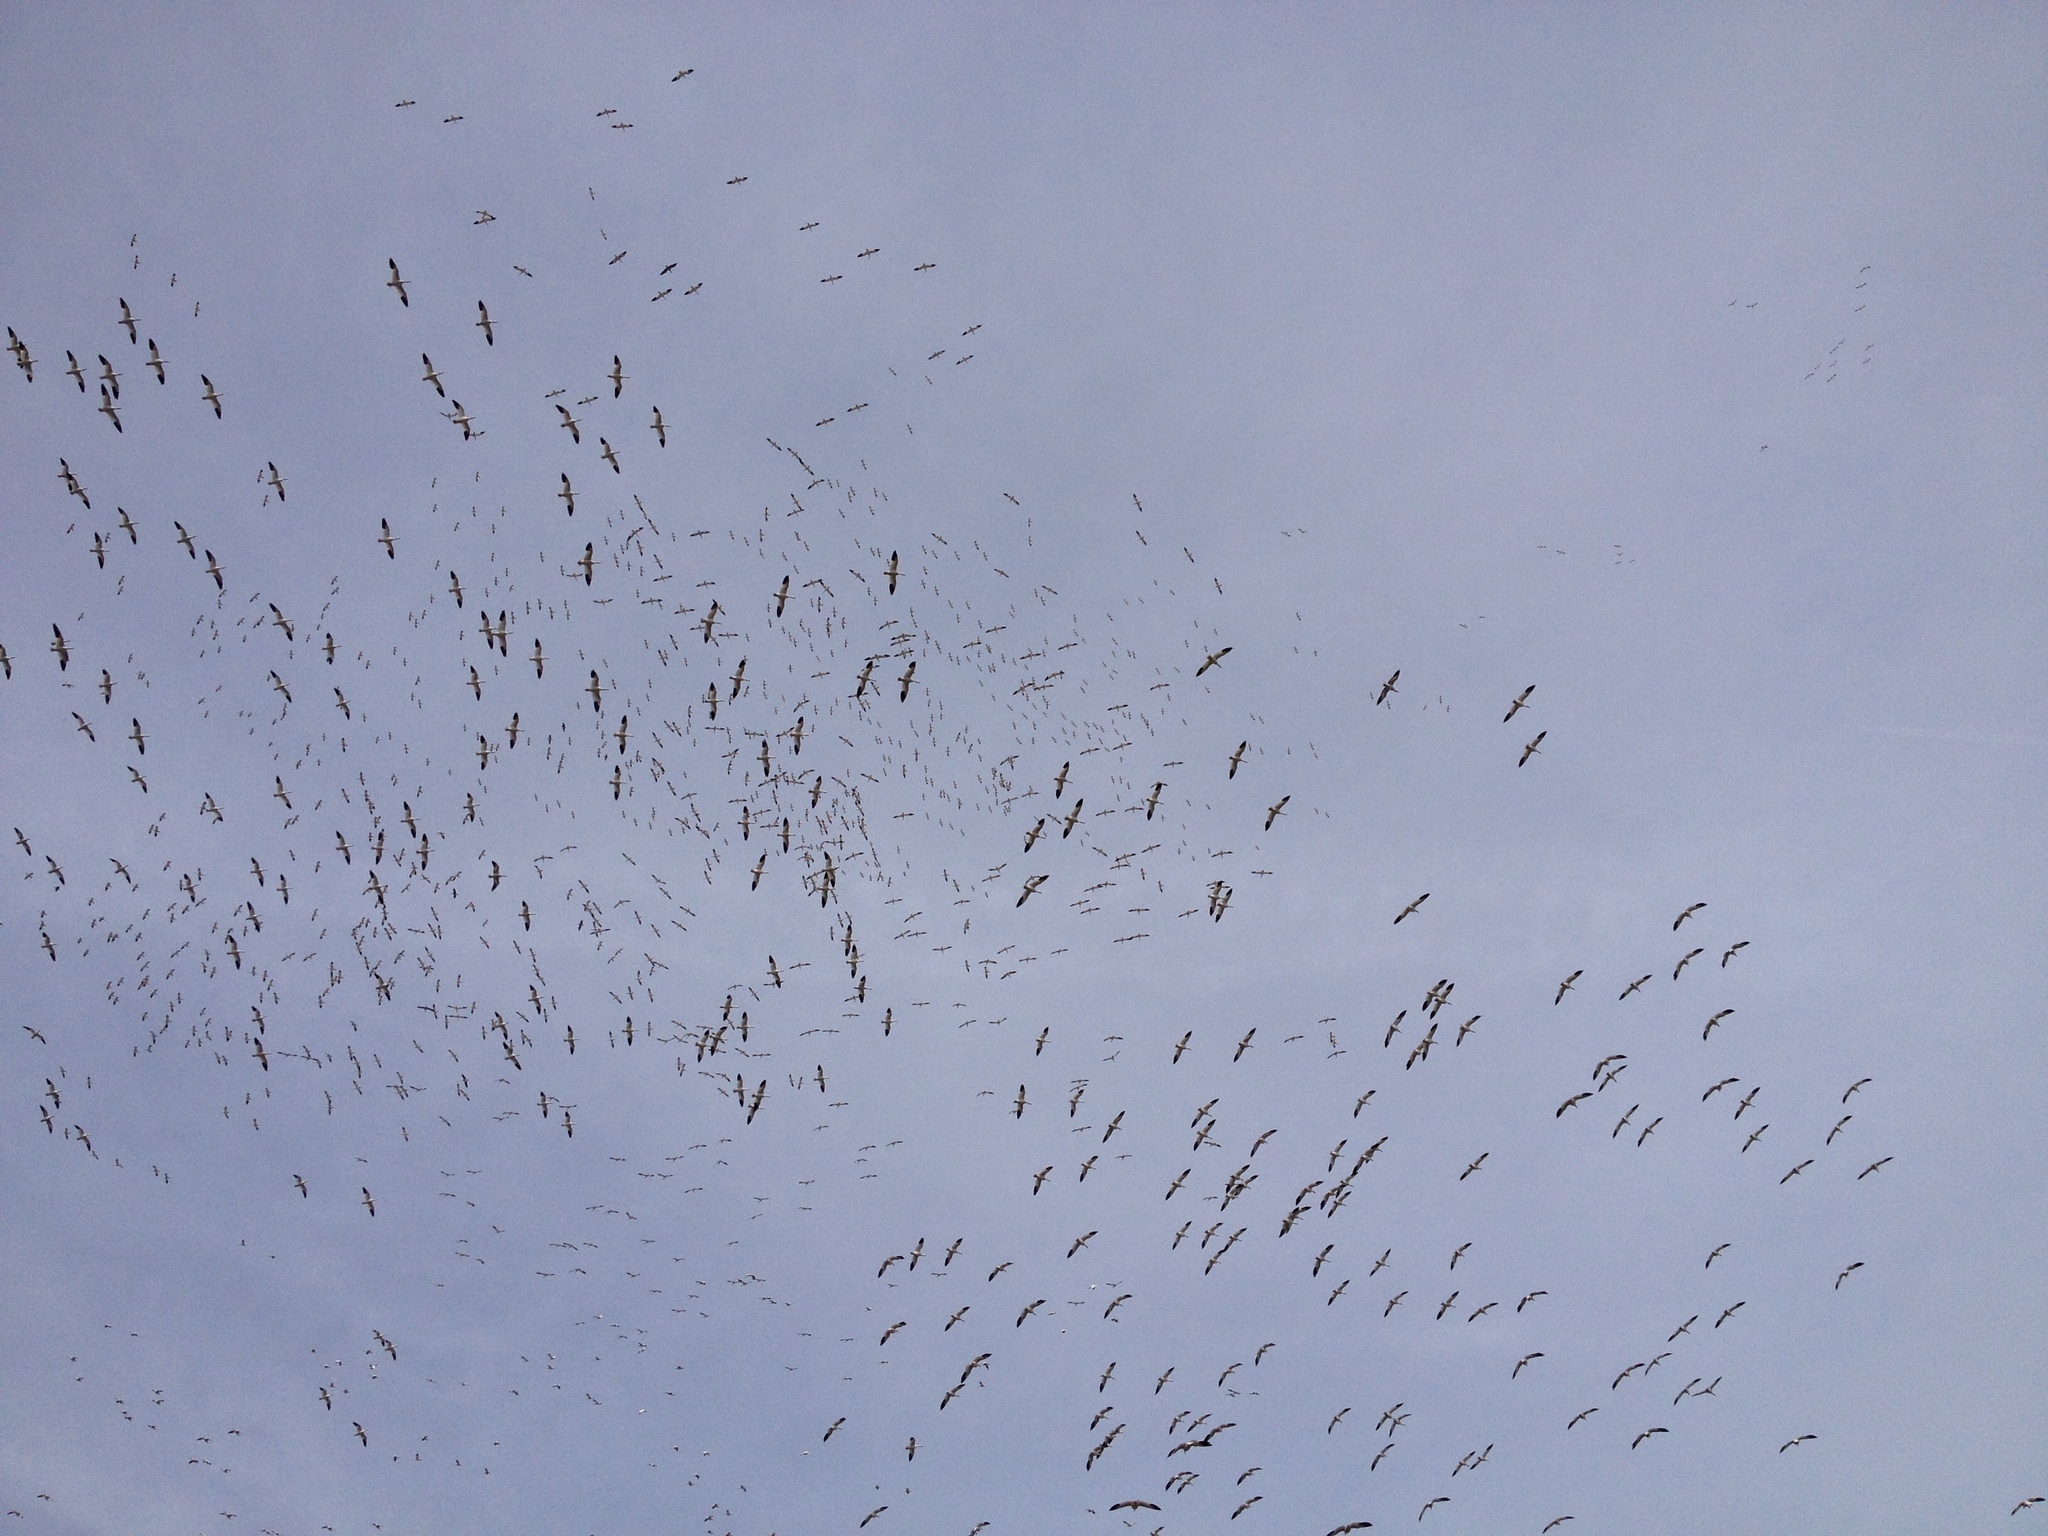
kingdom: Animalia
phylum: Chordata
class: Aves
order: Anseriformes
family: Anatidae
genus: Anser
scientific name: Anser caerulescens
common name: Snow goose
